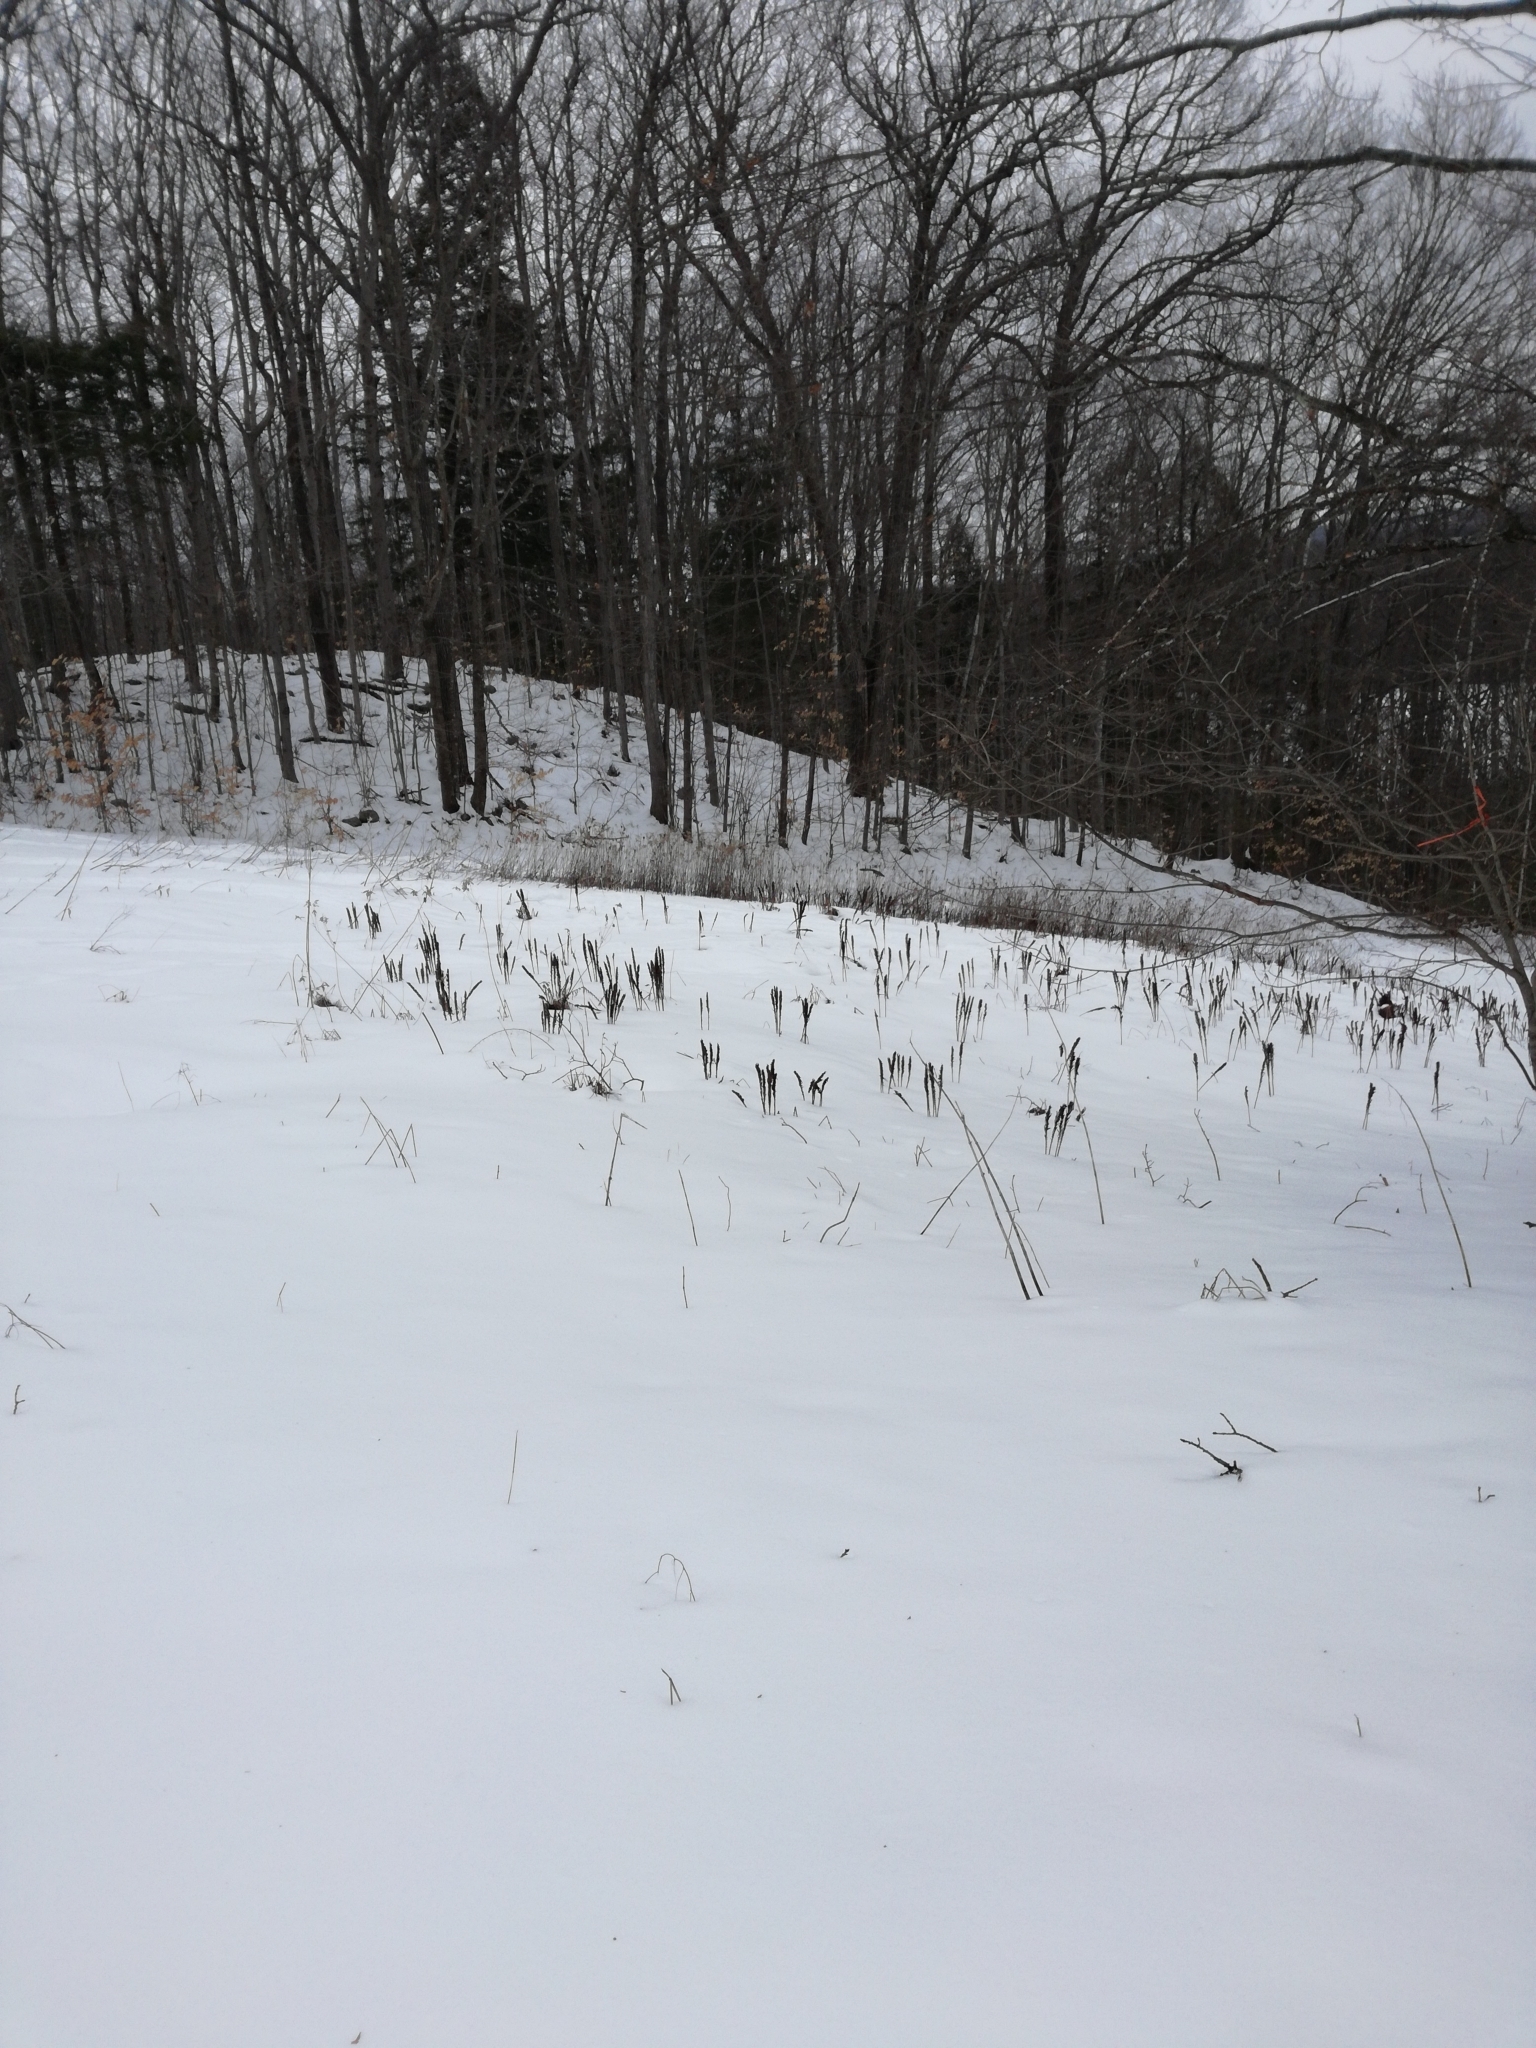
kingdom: Plantae
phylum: Tracheophyta
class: Polypodiopsida
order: Polypodiales
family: Onocleaceae
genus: Matteuccia
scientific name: Matteuccia struthiopteris
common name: Ostrich fern
